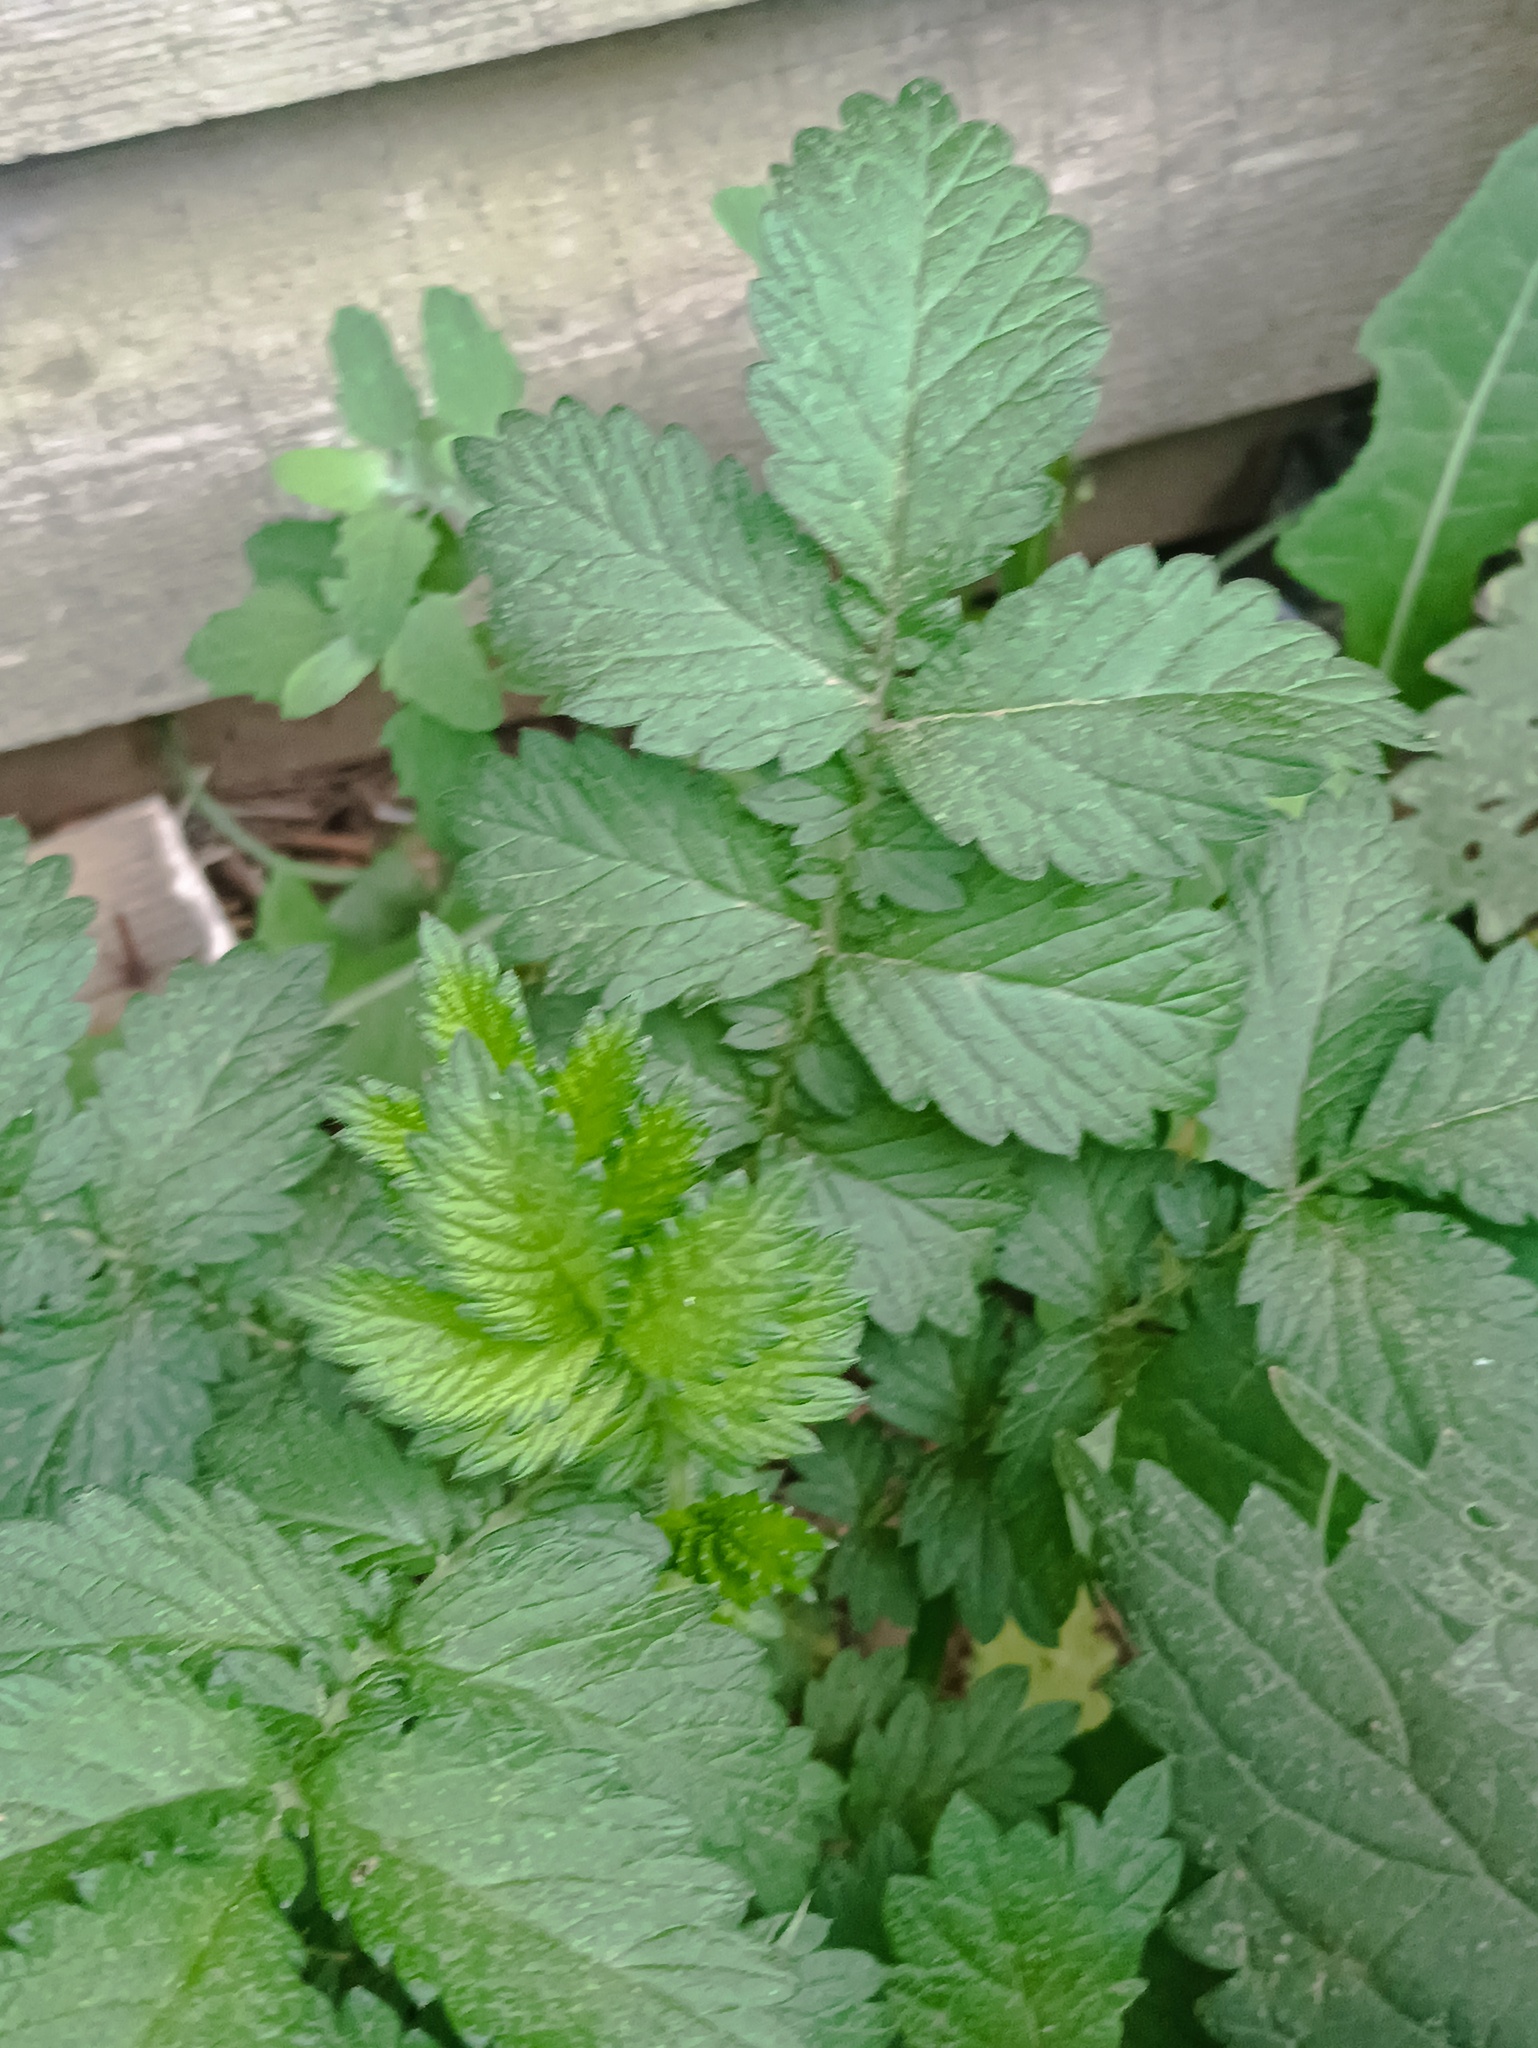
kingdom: Plantae
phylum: Tracheophyta
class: Magnoliopsida
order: Rosales
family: Rosaceae
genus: Agrimonia
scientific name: Agrimonia eupatoria
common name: Agrimony
